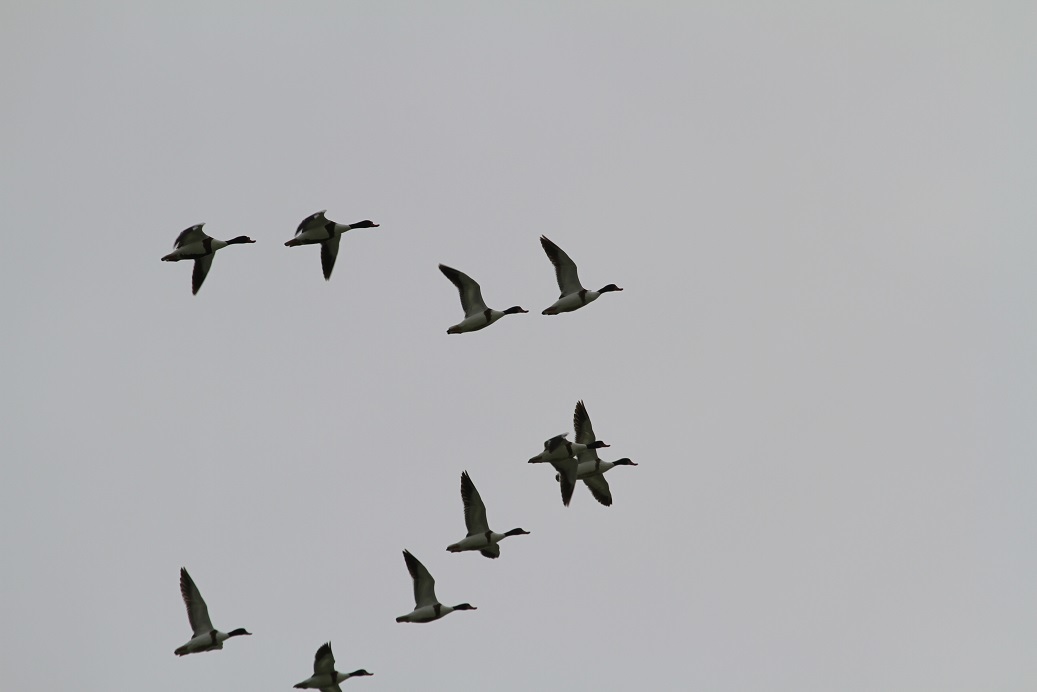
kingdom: Animalia
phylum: Chordata
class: Aves
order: Anseriformes
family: Anatidae
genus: Tadorna
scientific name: Tadorna tadorna
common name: Common shelduck
